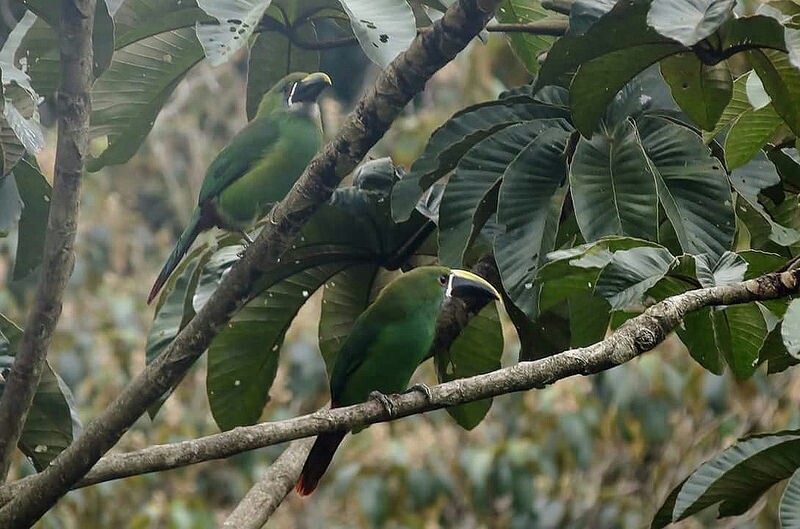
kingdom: Animalia
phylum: Chordata
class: Aves
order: Piciformes
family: Ramphastidae
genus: Aulacorhynchus
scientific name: Aulacorhynchus albivitta
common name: White-throated toucanet
